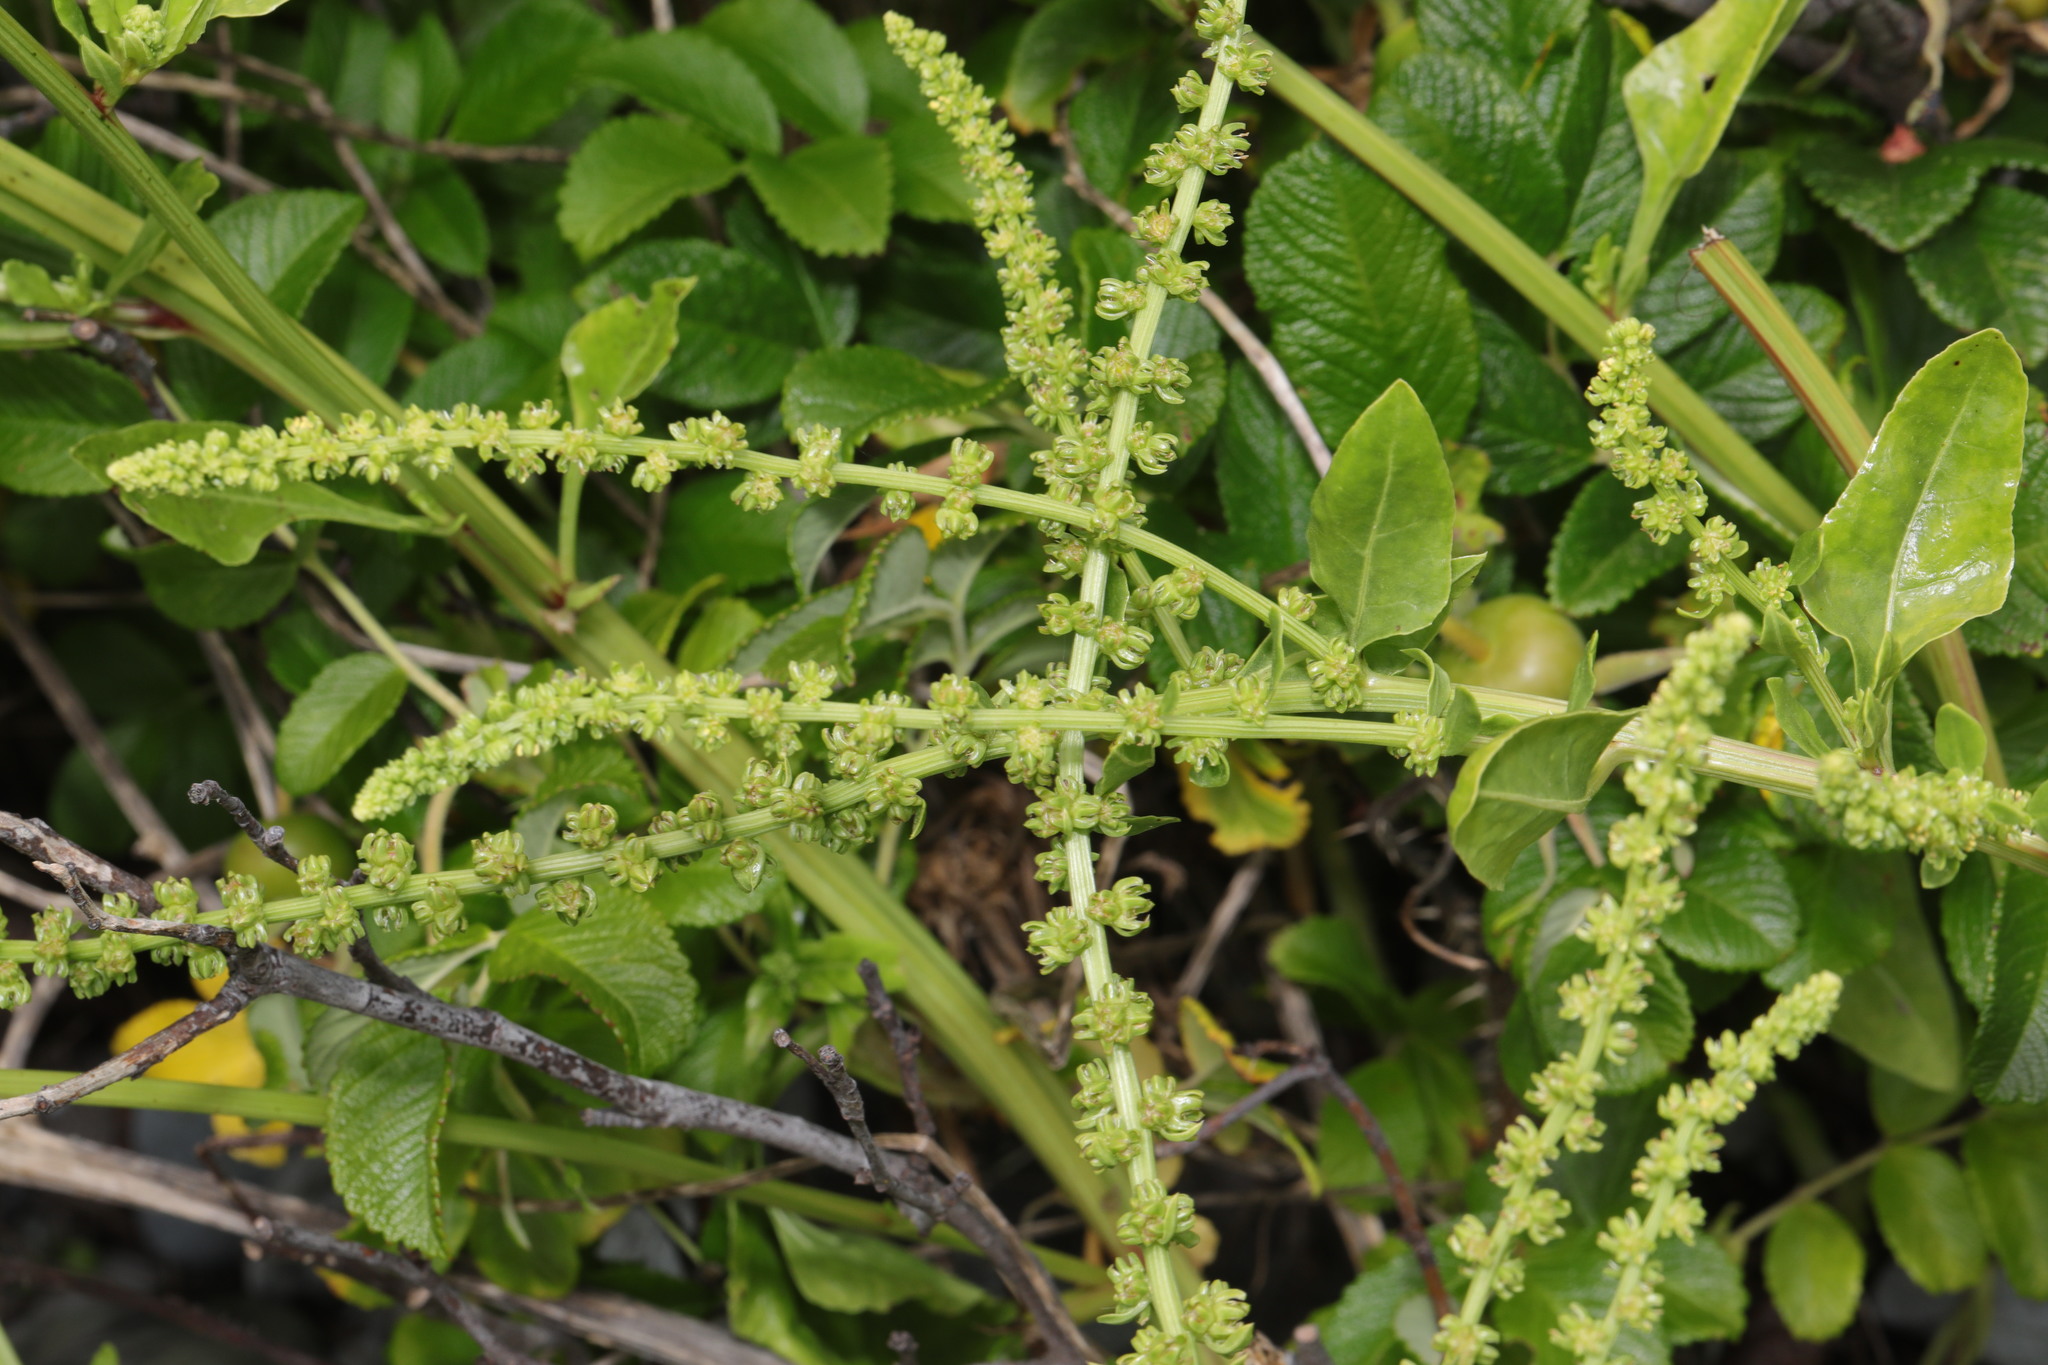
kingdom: Plantae
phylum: Tracheophyta
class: Magnoliopsida
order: Caryophyllales
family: Amaranthaceae
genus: Beta
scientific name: Beta vulgaris
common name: Beet
